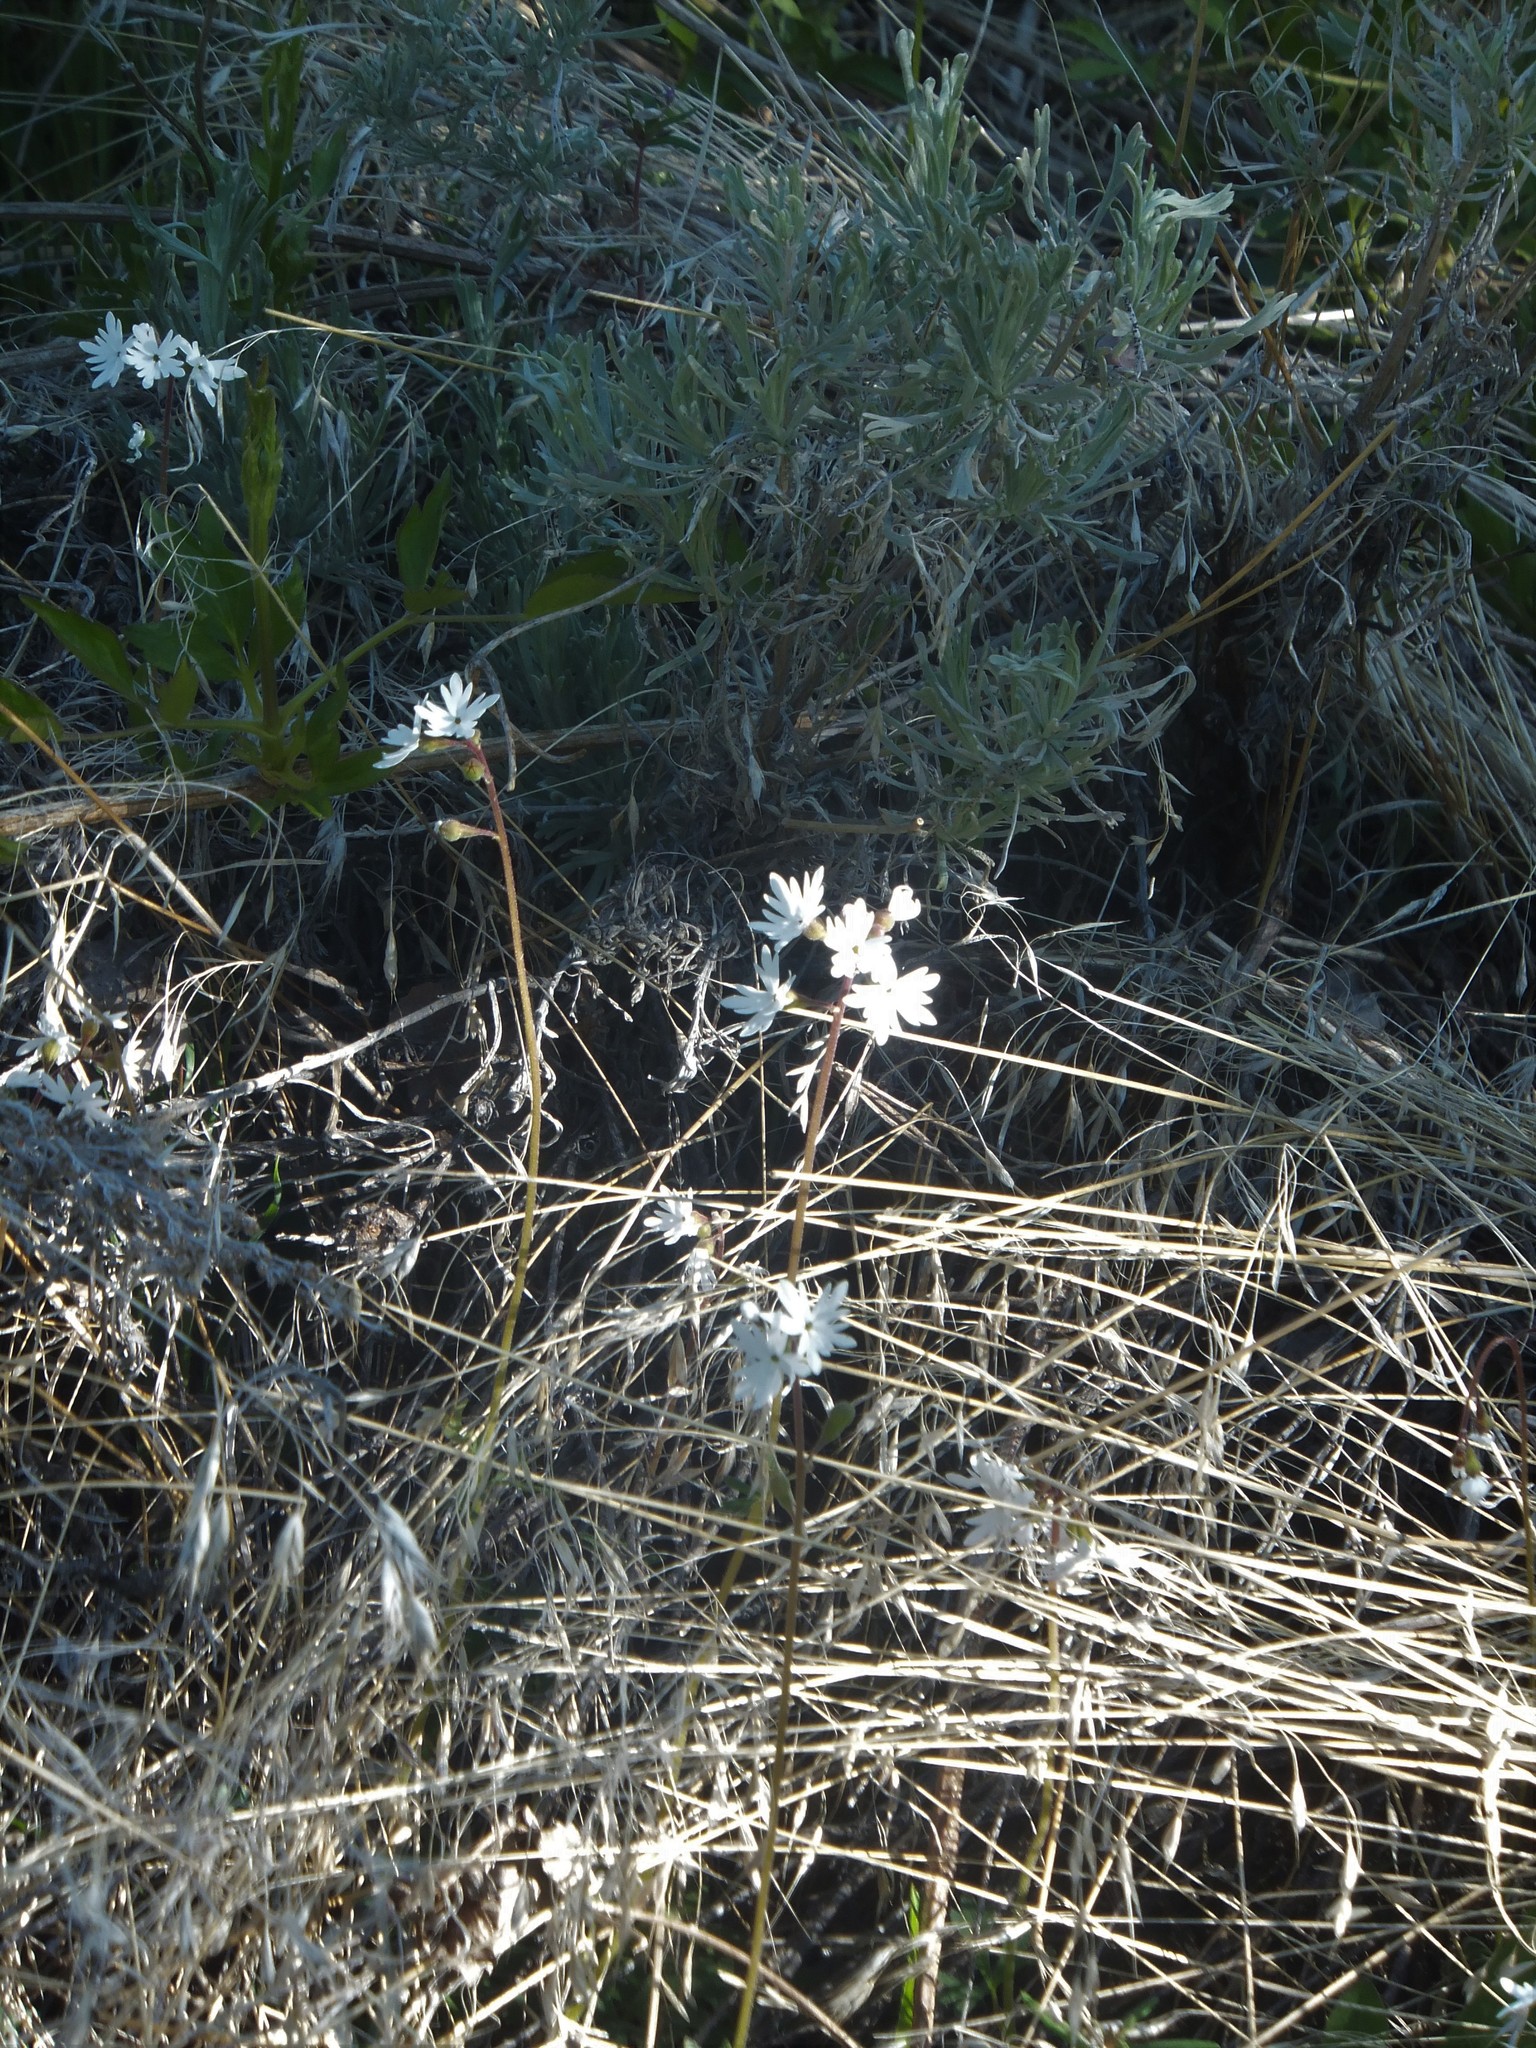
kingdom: Plantae
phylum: Tracheophyta
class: Magnoliopsida
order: Saxifragales
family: Saxifragaceae
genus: Lithophragma
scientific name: Lithophragma parviflorum
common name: Small-flowered fringe-cup
